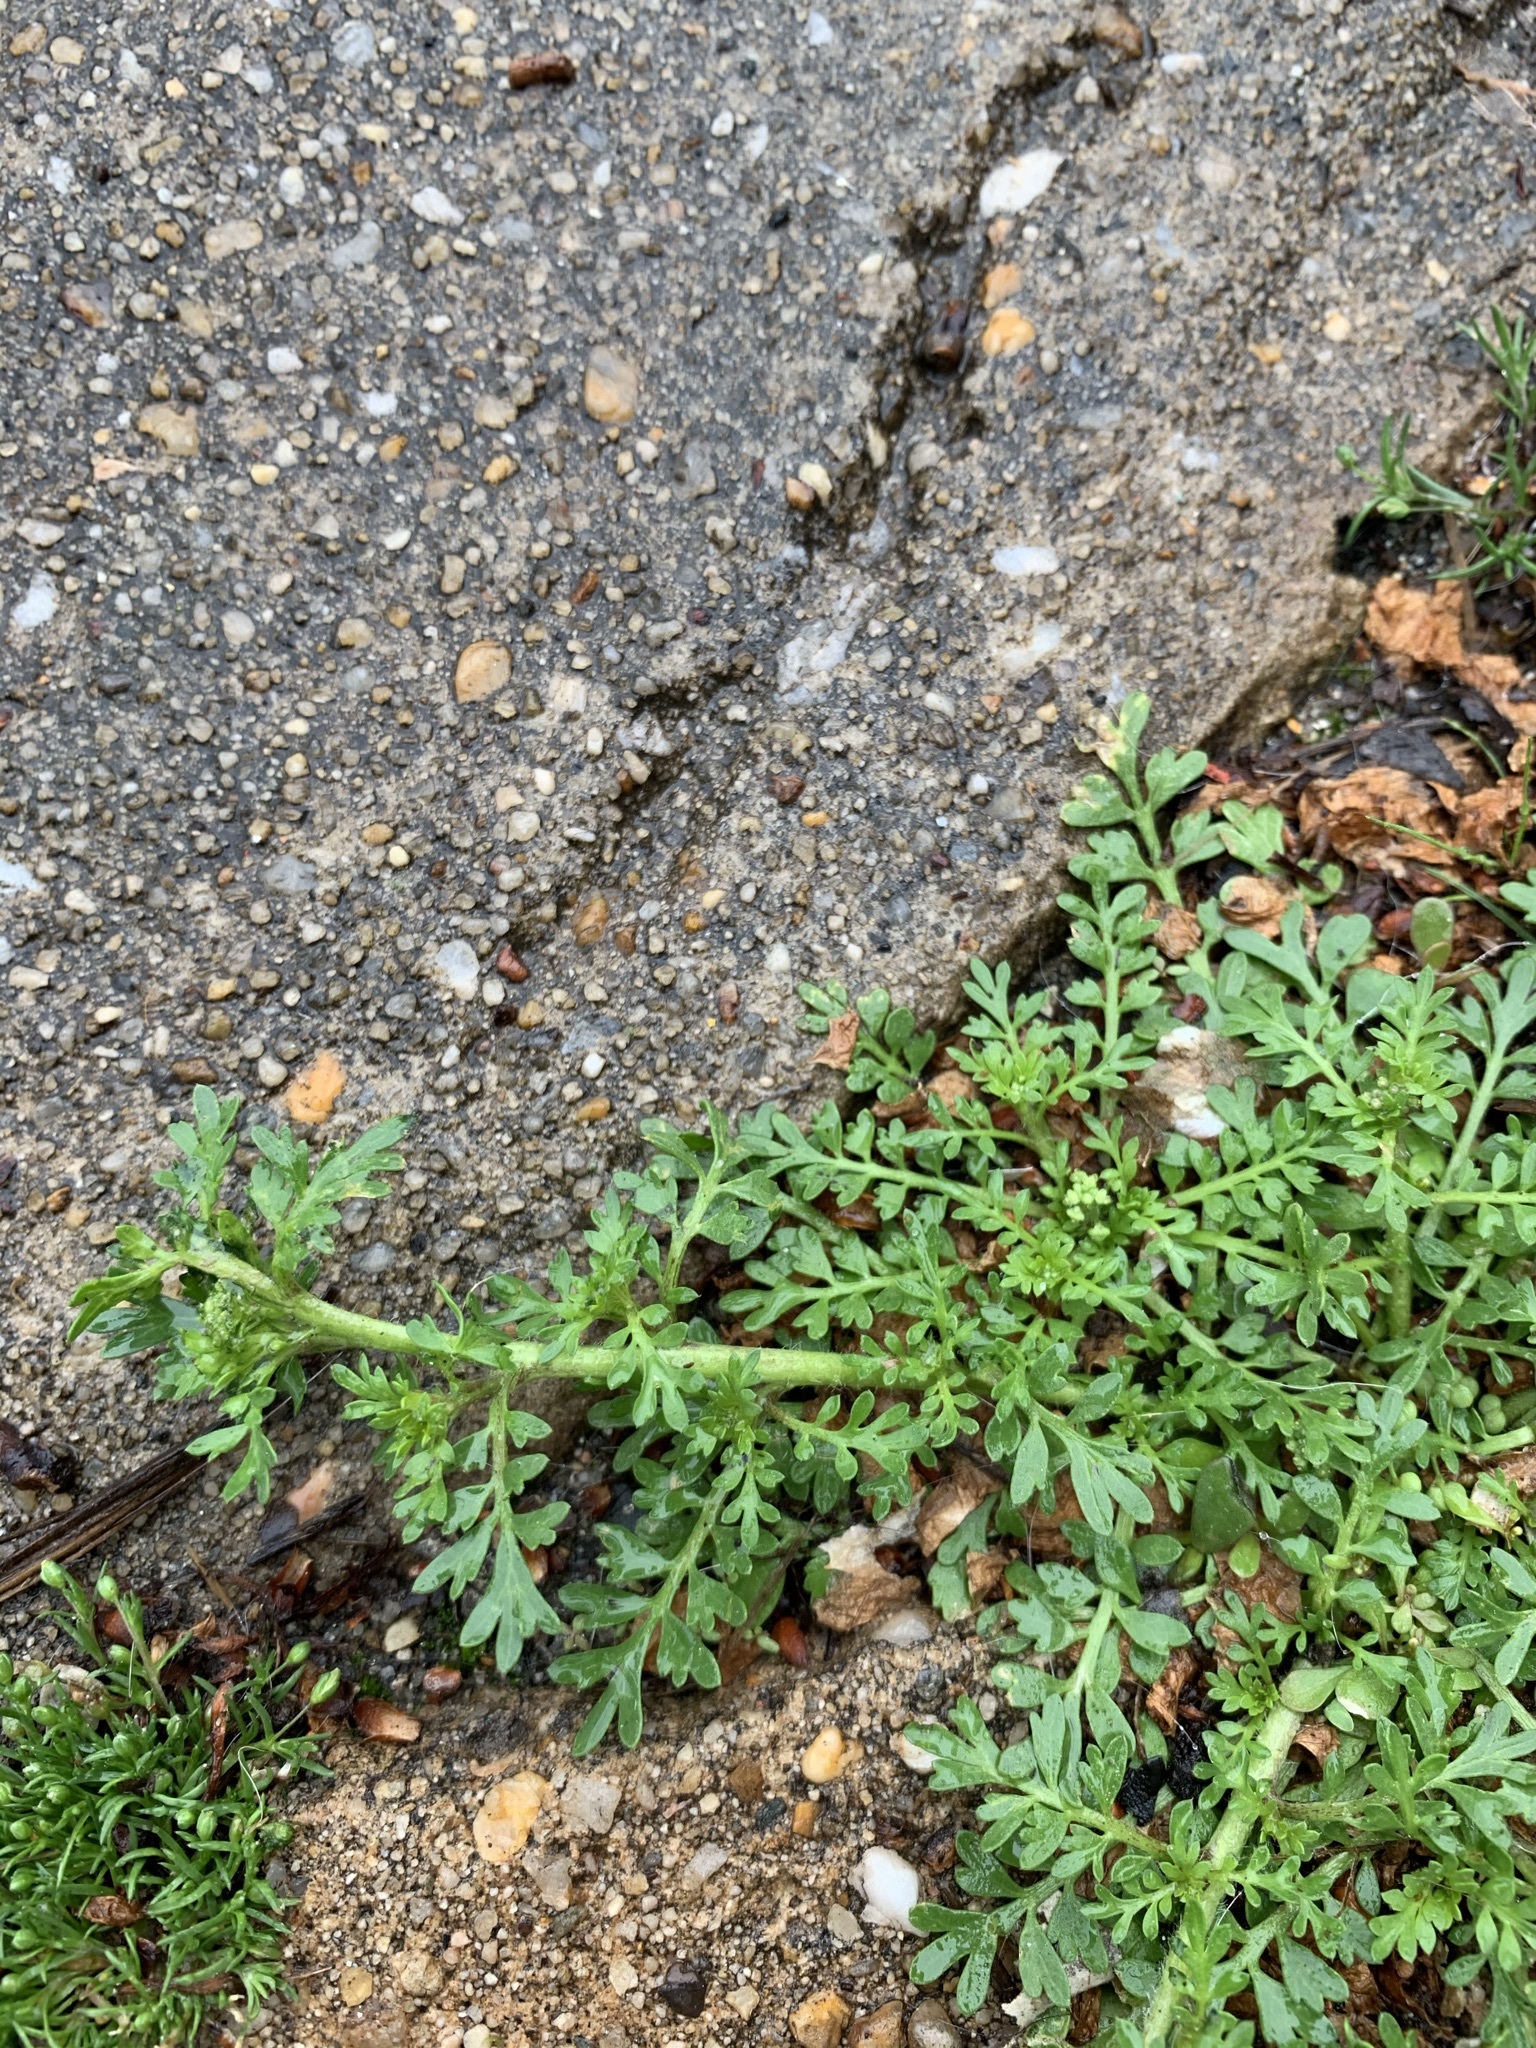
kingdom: Plantae
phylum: Tracheophyta
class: Magnoliopsida
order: Brassicales
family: Brassicaceae
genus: Lepidium
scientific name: Lepidium didymum
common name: Lesser swinecress
